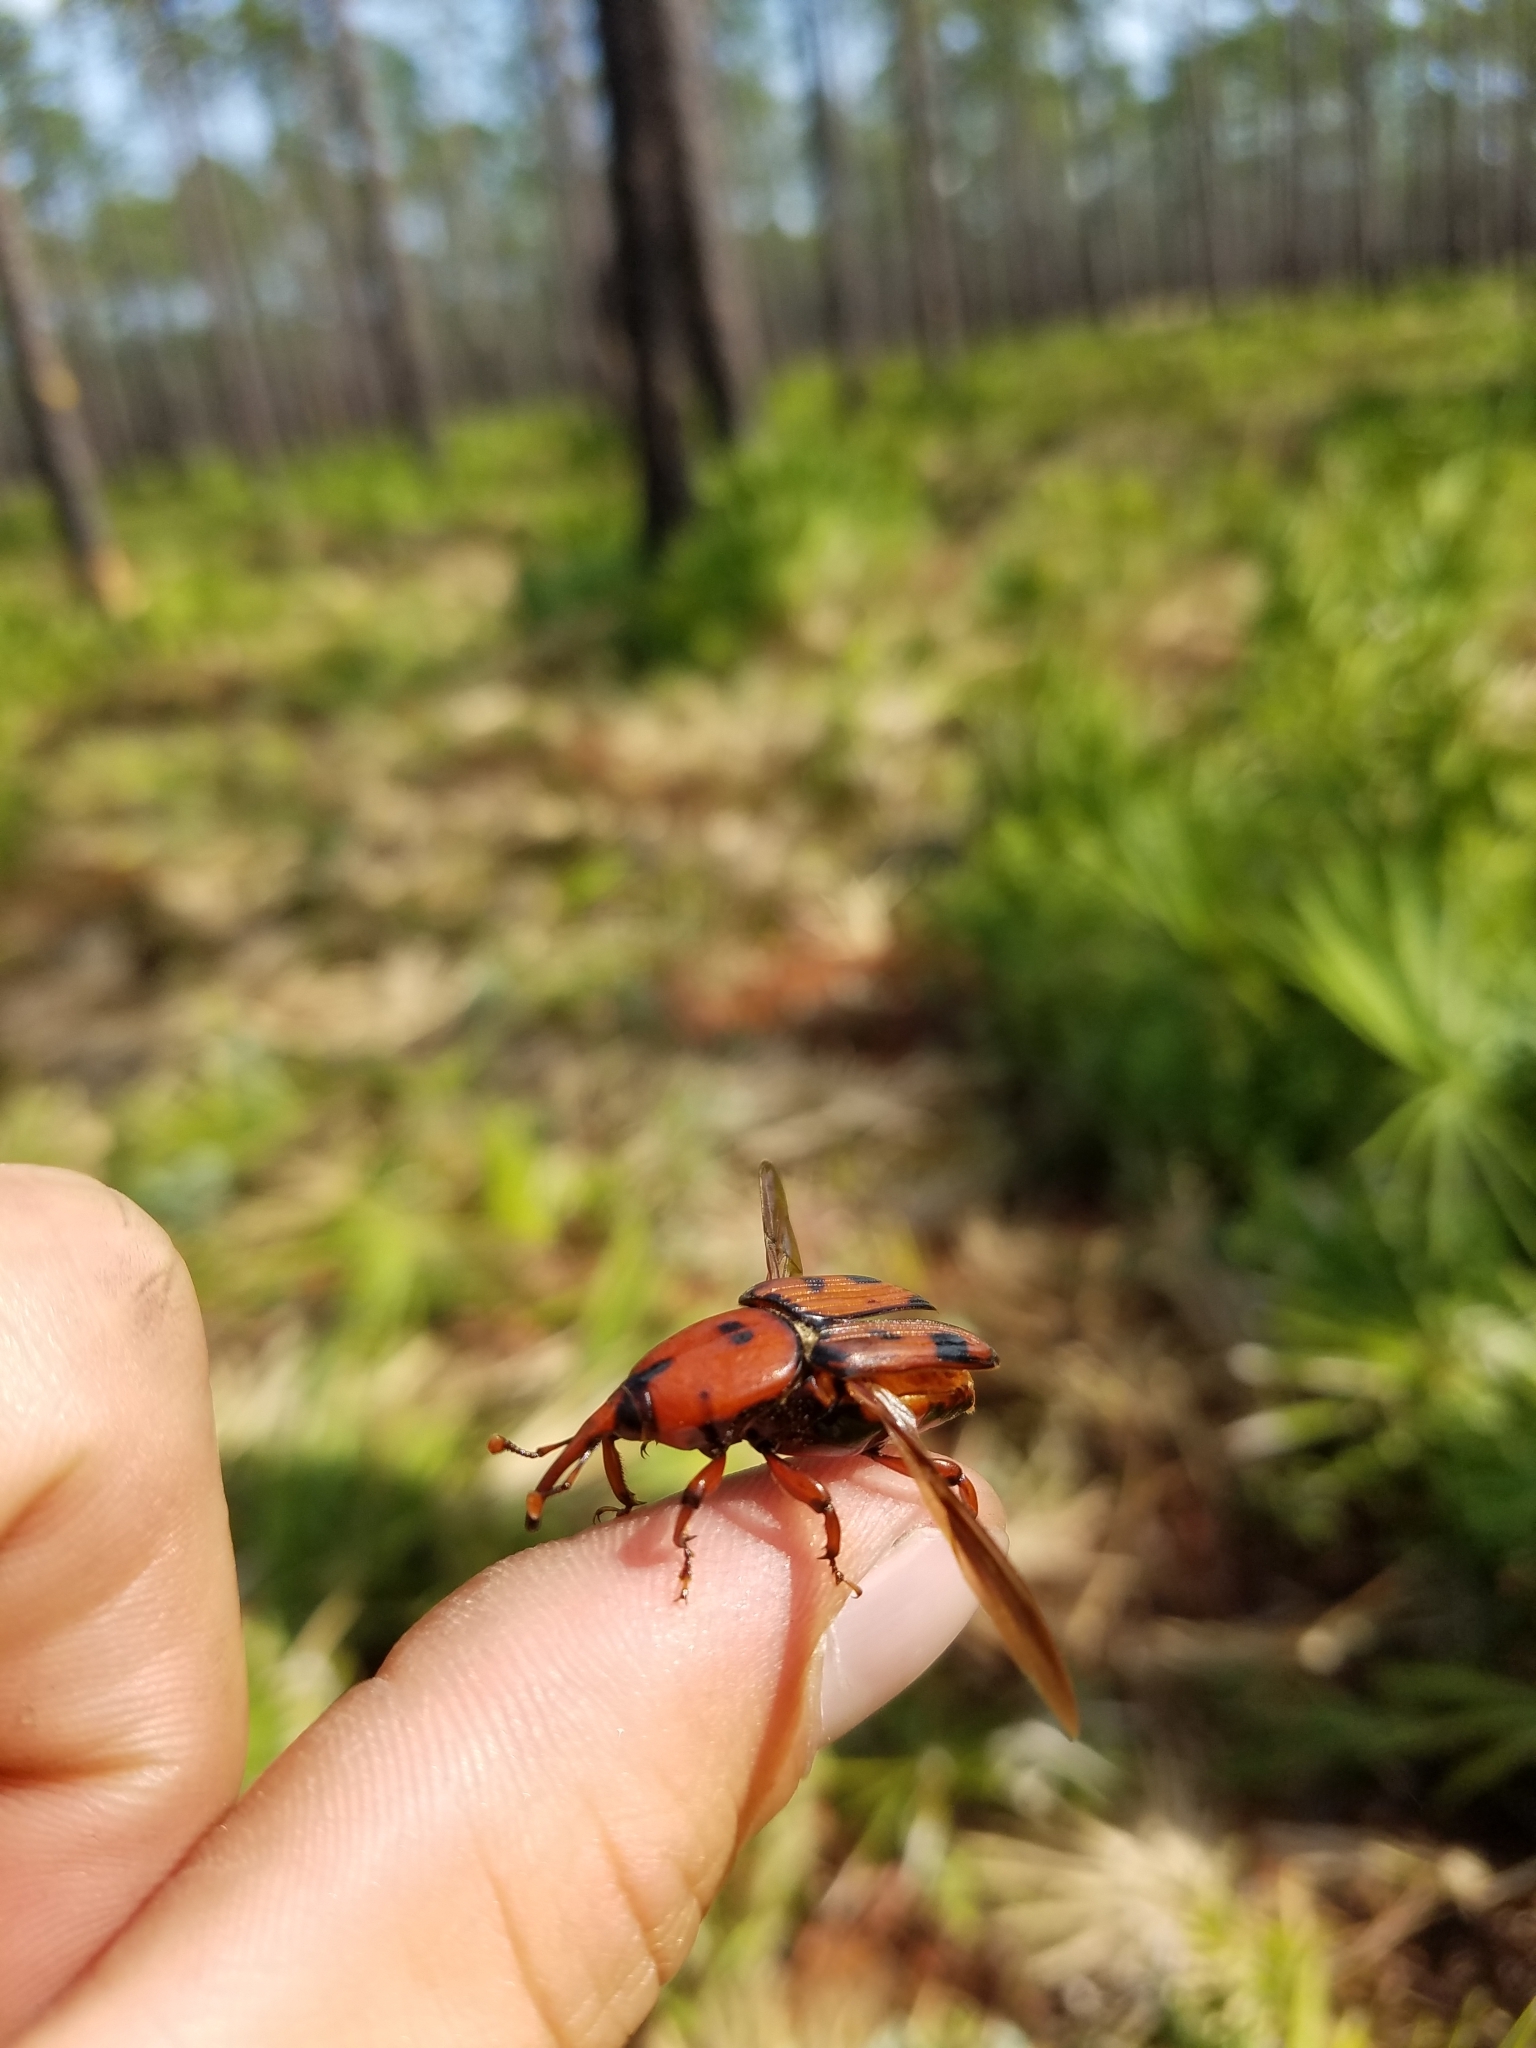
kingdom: Animalia
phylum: Arthropoda
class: Insecta
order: Coleoptera
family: Dryophthoridae
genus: Rhynchophorus
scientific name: Rhynchophorus cruentatus
